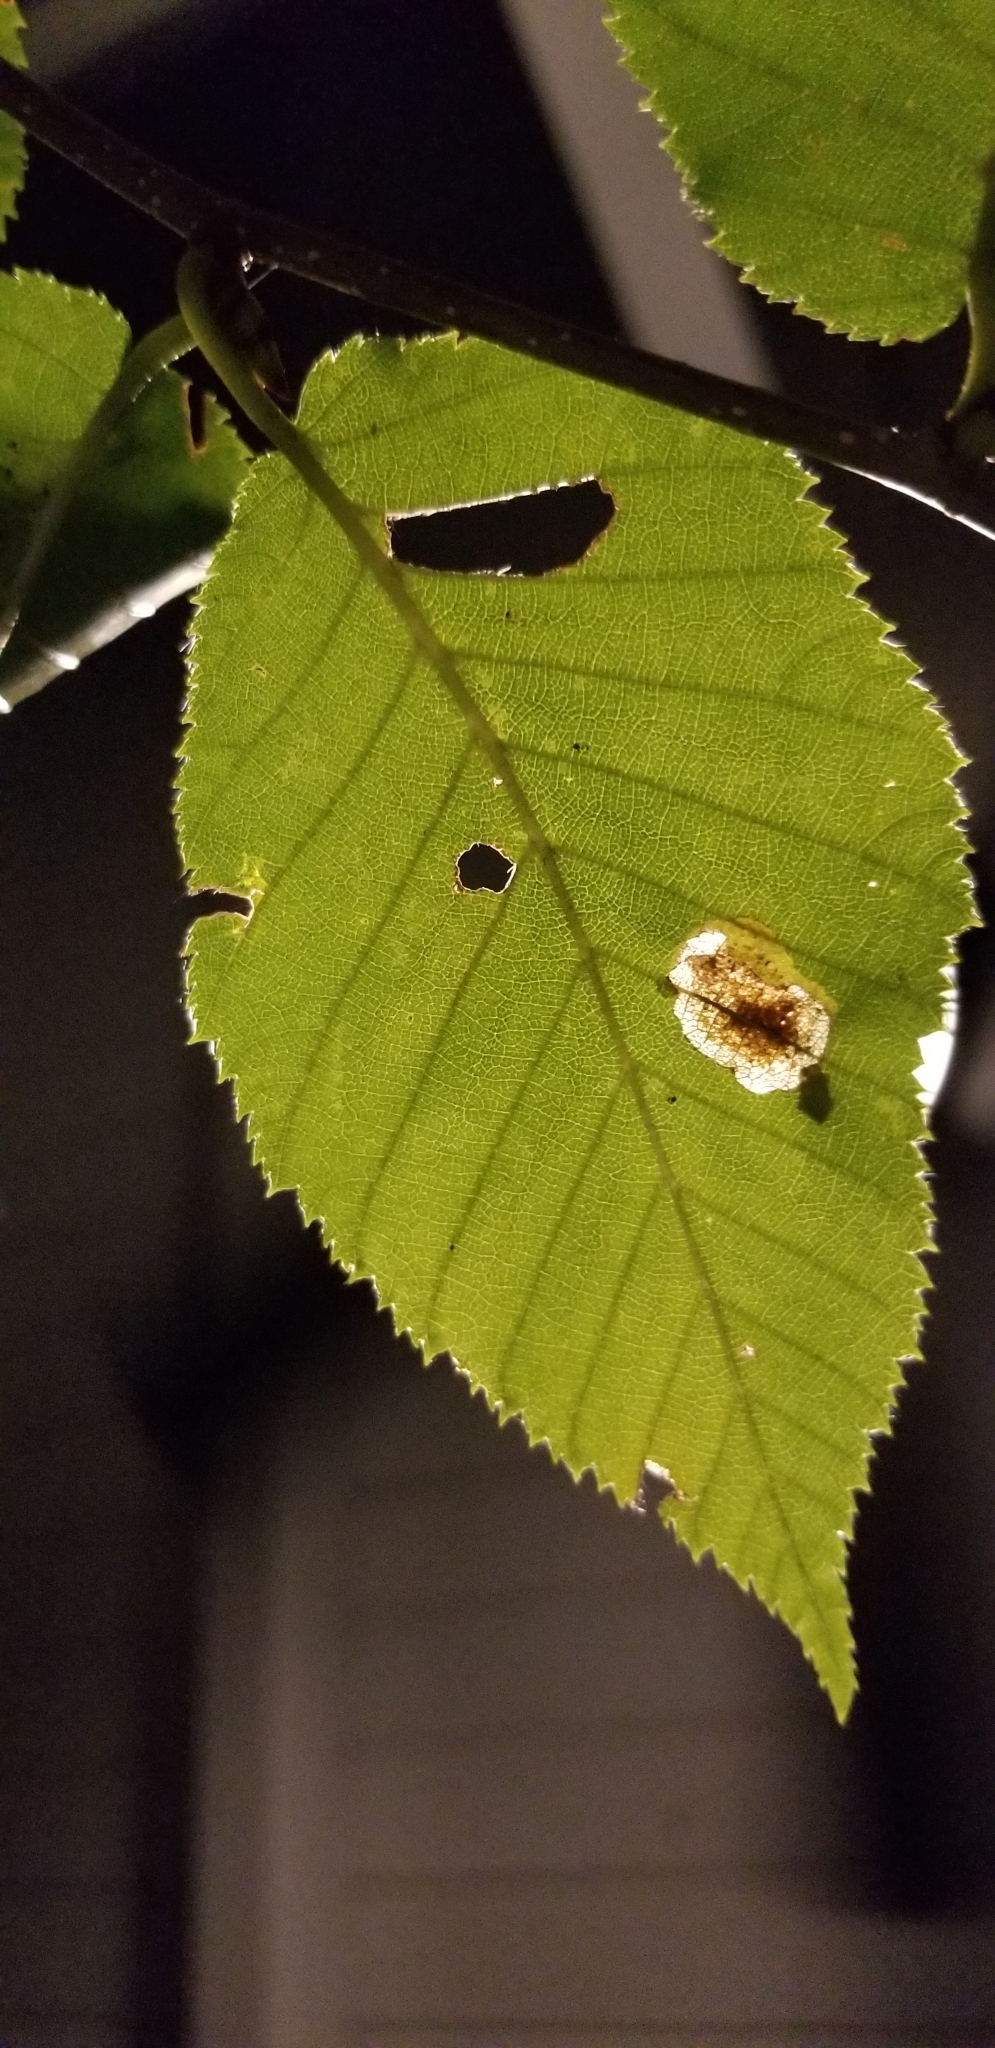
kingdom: Animalia
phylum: Arthropoda
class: Insecta
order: Lepidoptera
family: Nepticulidae
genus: Ectoedemia
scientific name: Ectoedemia occultella
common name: Large birch pigmy
